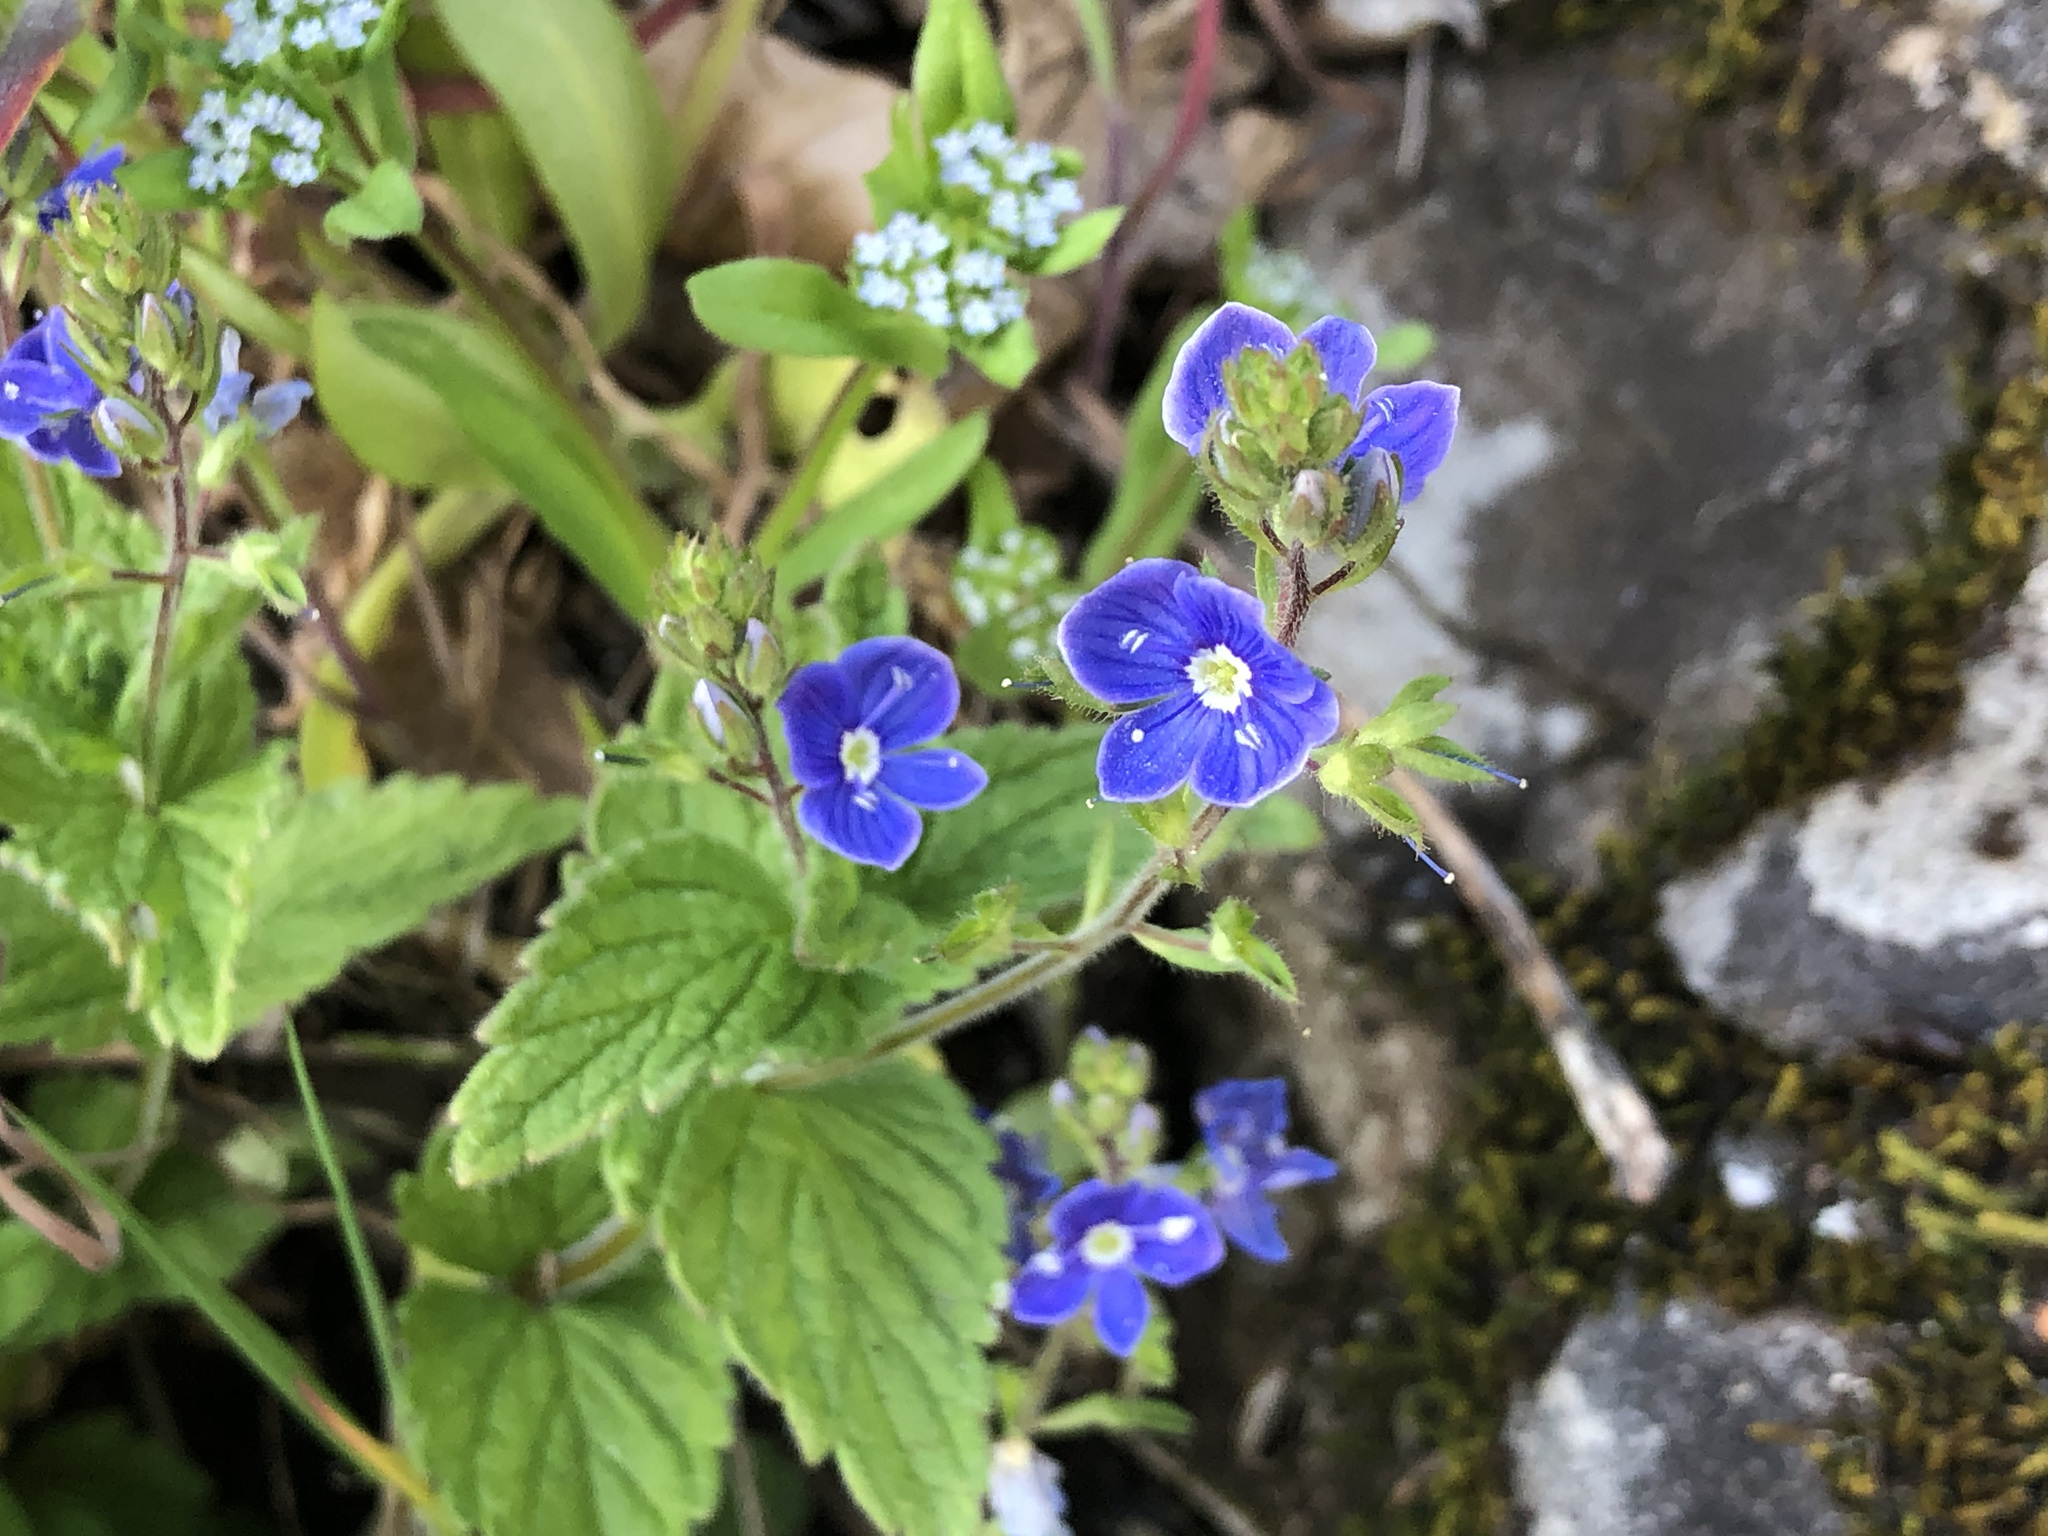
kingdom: Plantae
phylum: Tracheophyta
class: Magnoliopsida
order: Lamiales
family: Plantaginaceae
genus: Veronica
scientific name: Veronica chamaedrys
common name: Germander speedwell
